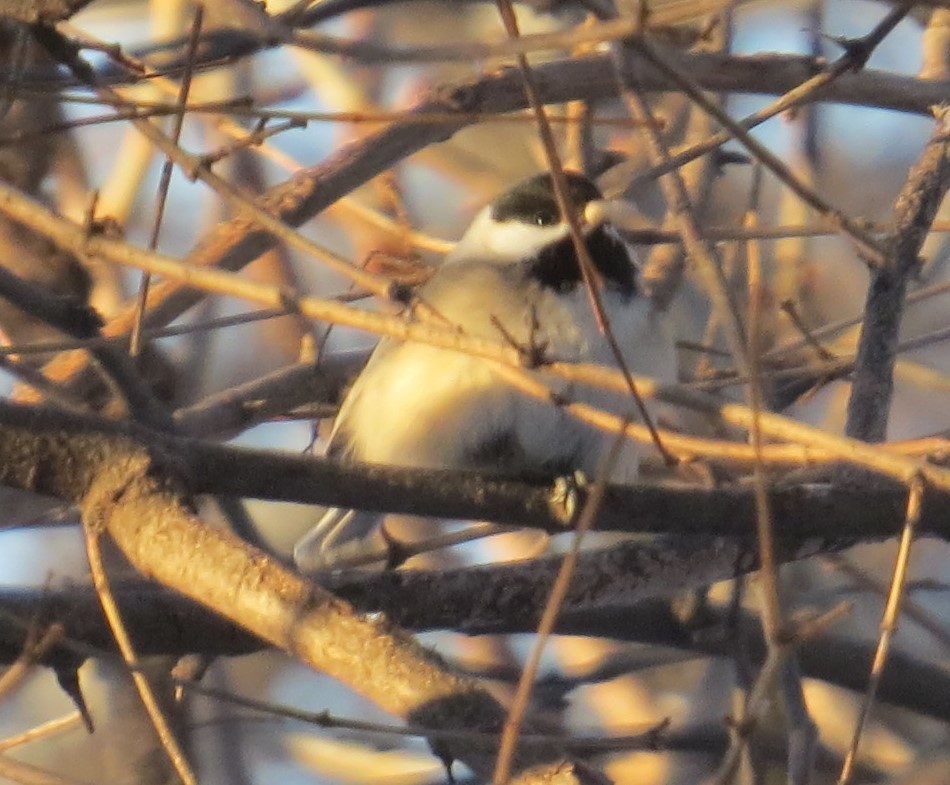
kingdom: Animalia
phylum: Chordata
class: Aves
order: Passeriformes
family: Paridae
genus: Poecile
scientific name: Poecile atricapillus
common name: Black-capped chickadee
